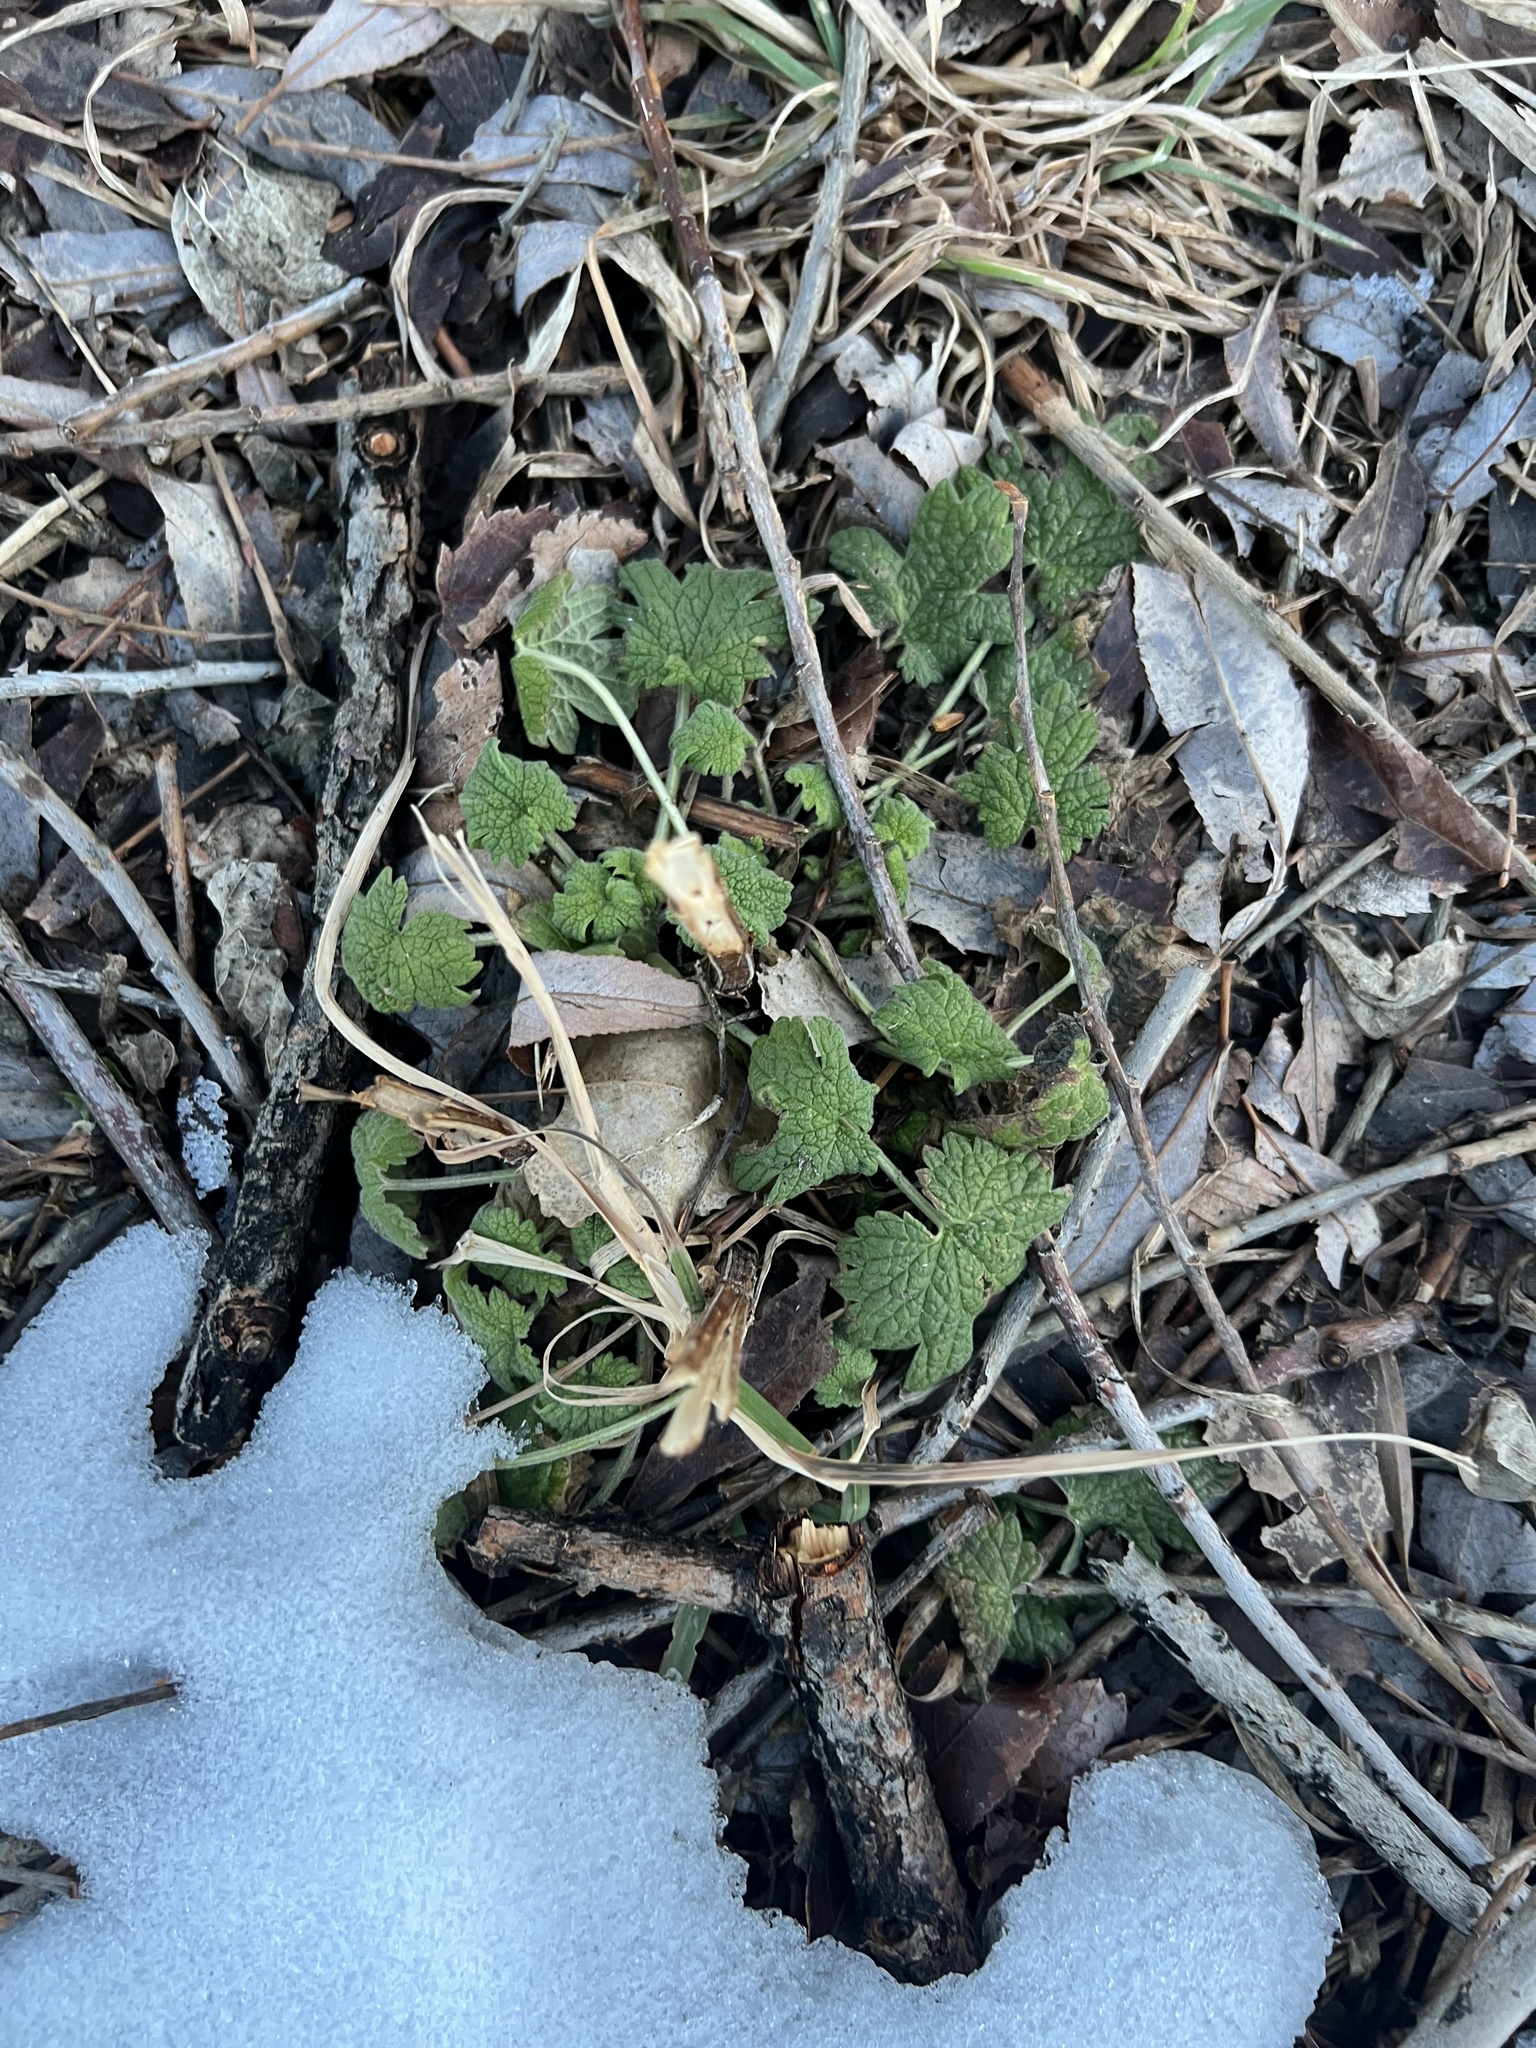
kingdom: Plantae
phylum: Tracheophyta
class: Magnoliopsida
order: Lamiales
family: Lamiaceae
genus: Leonurus
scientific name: Leonurus cardiaca
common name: Motherwort
